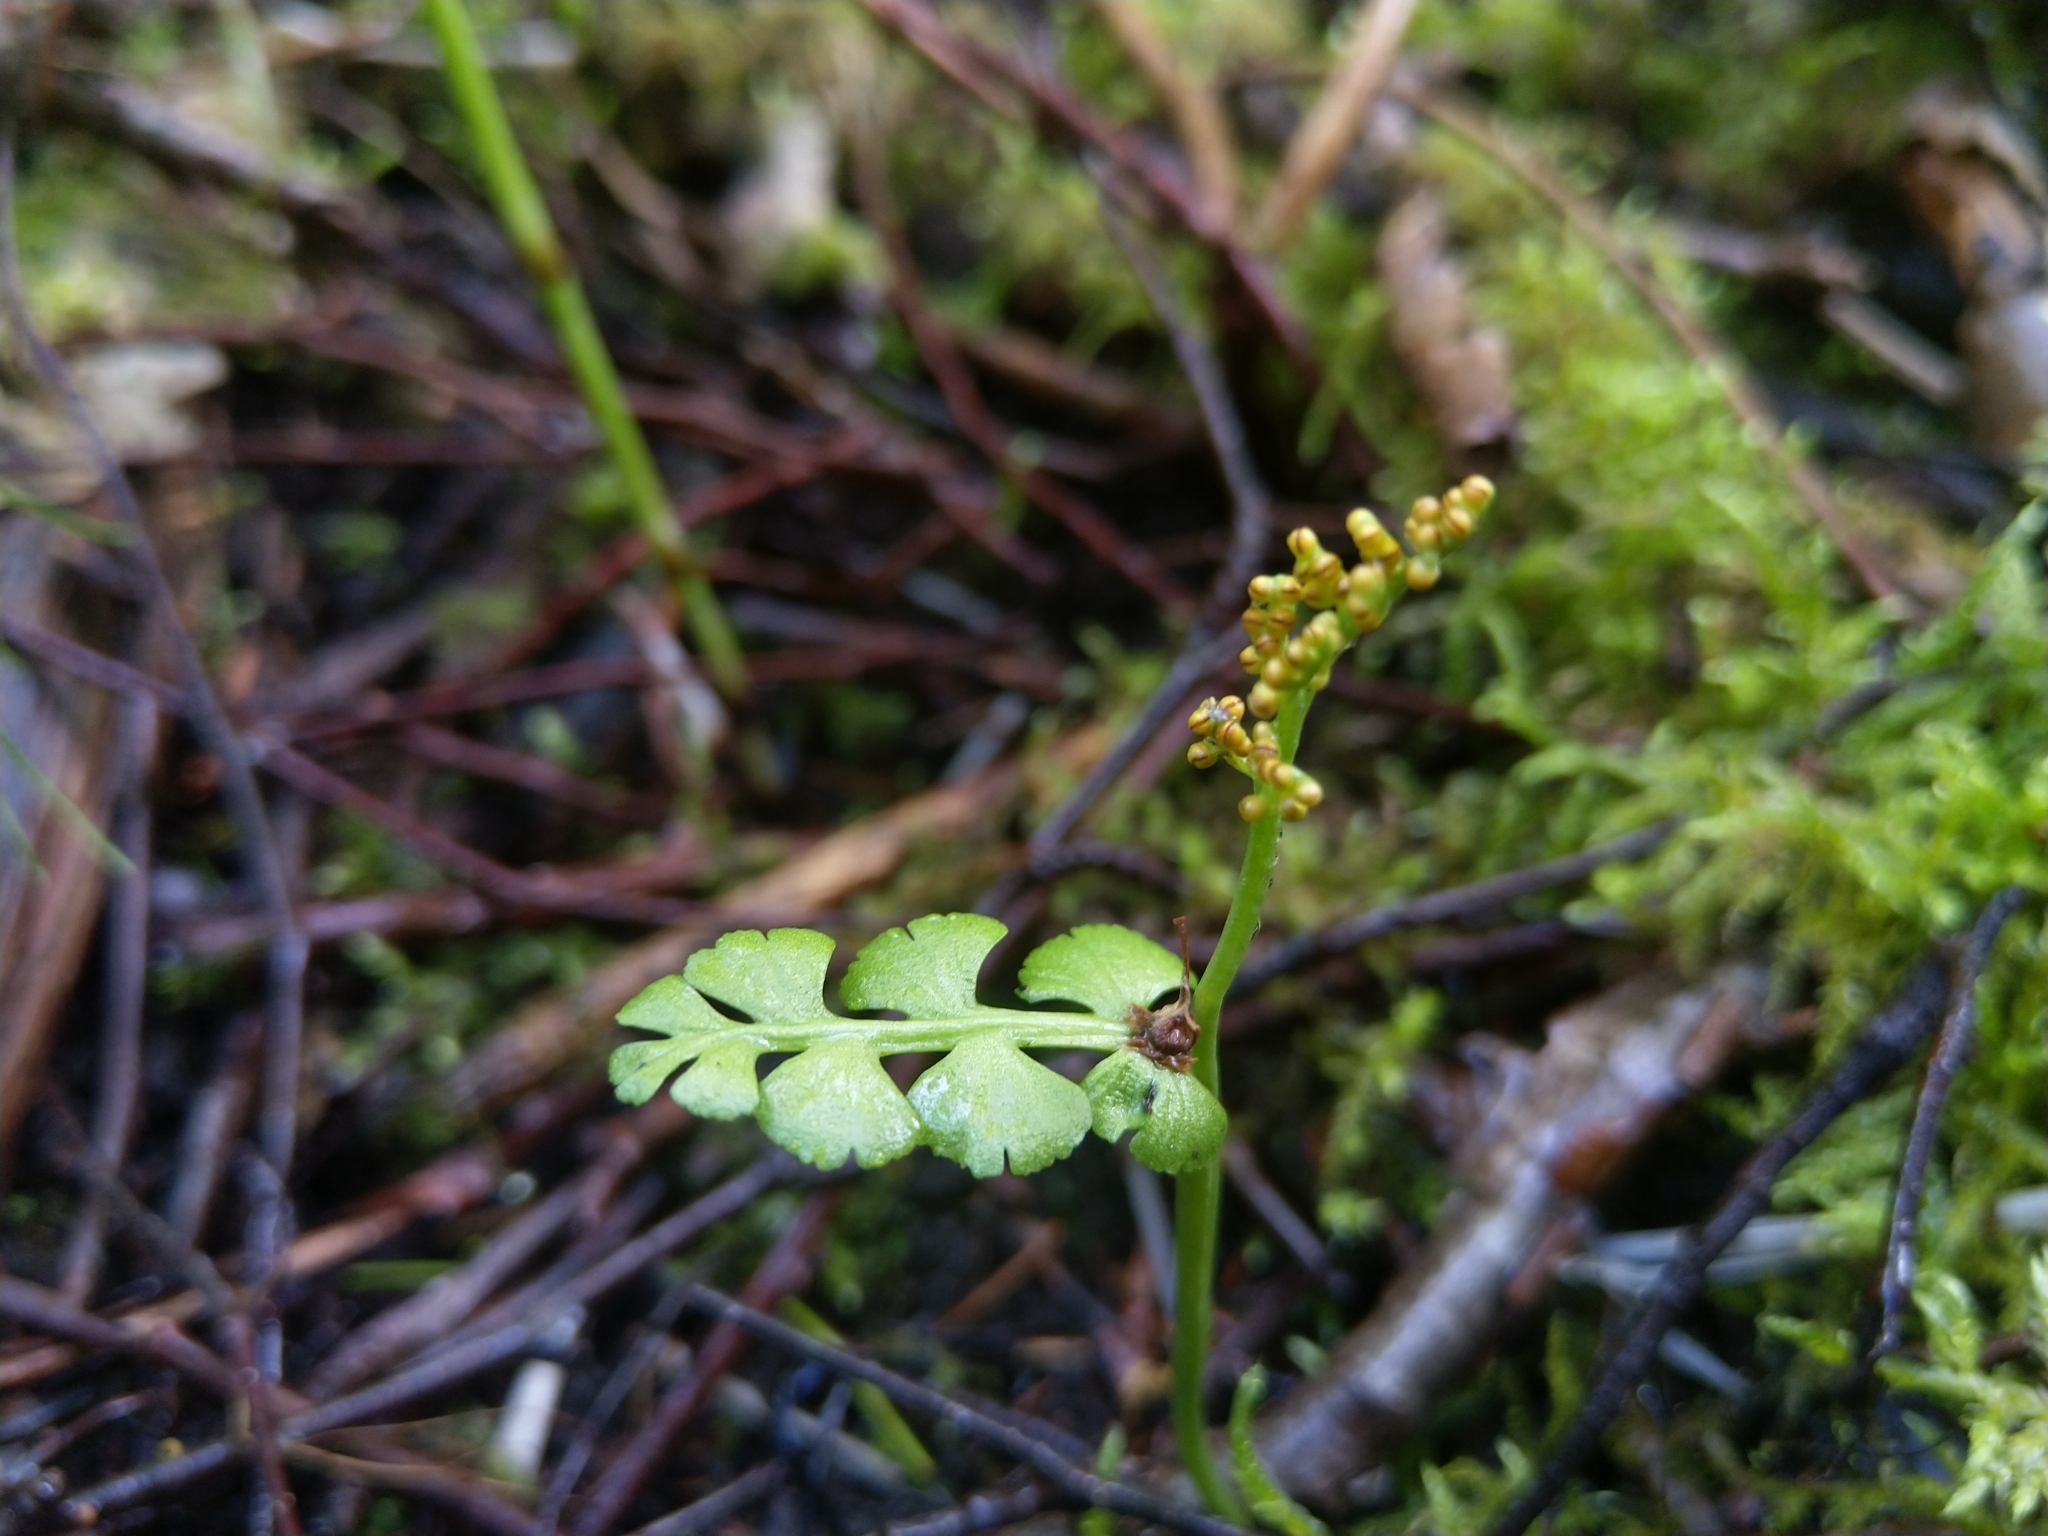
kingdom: Plantae
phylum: Tracheophyta
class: Polypodiopsida
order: Ophioglossales
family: Ophioglossaceae
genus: Botrychium
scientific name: Botrychium lunaria
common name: Moonwort
